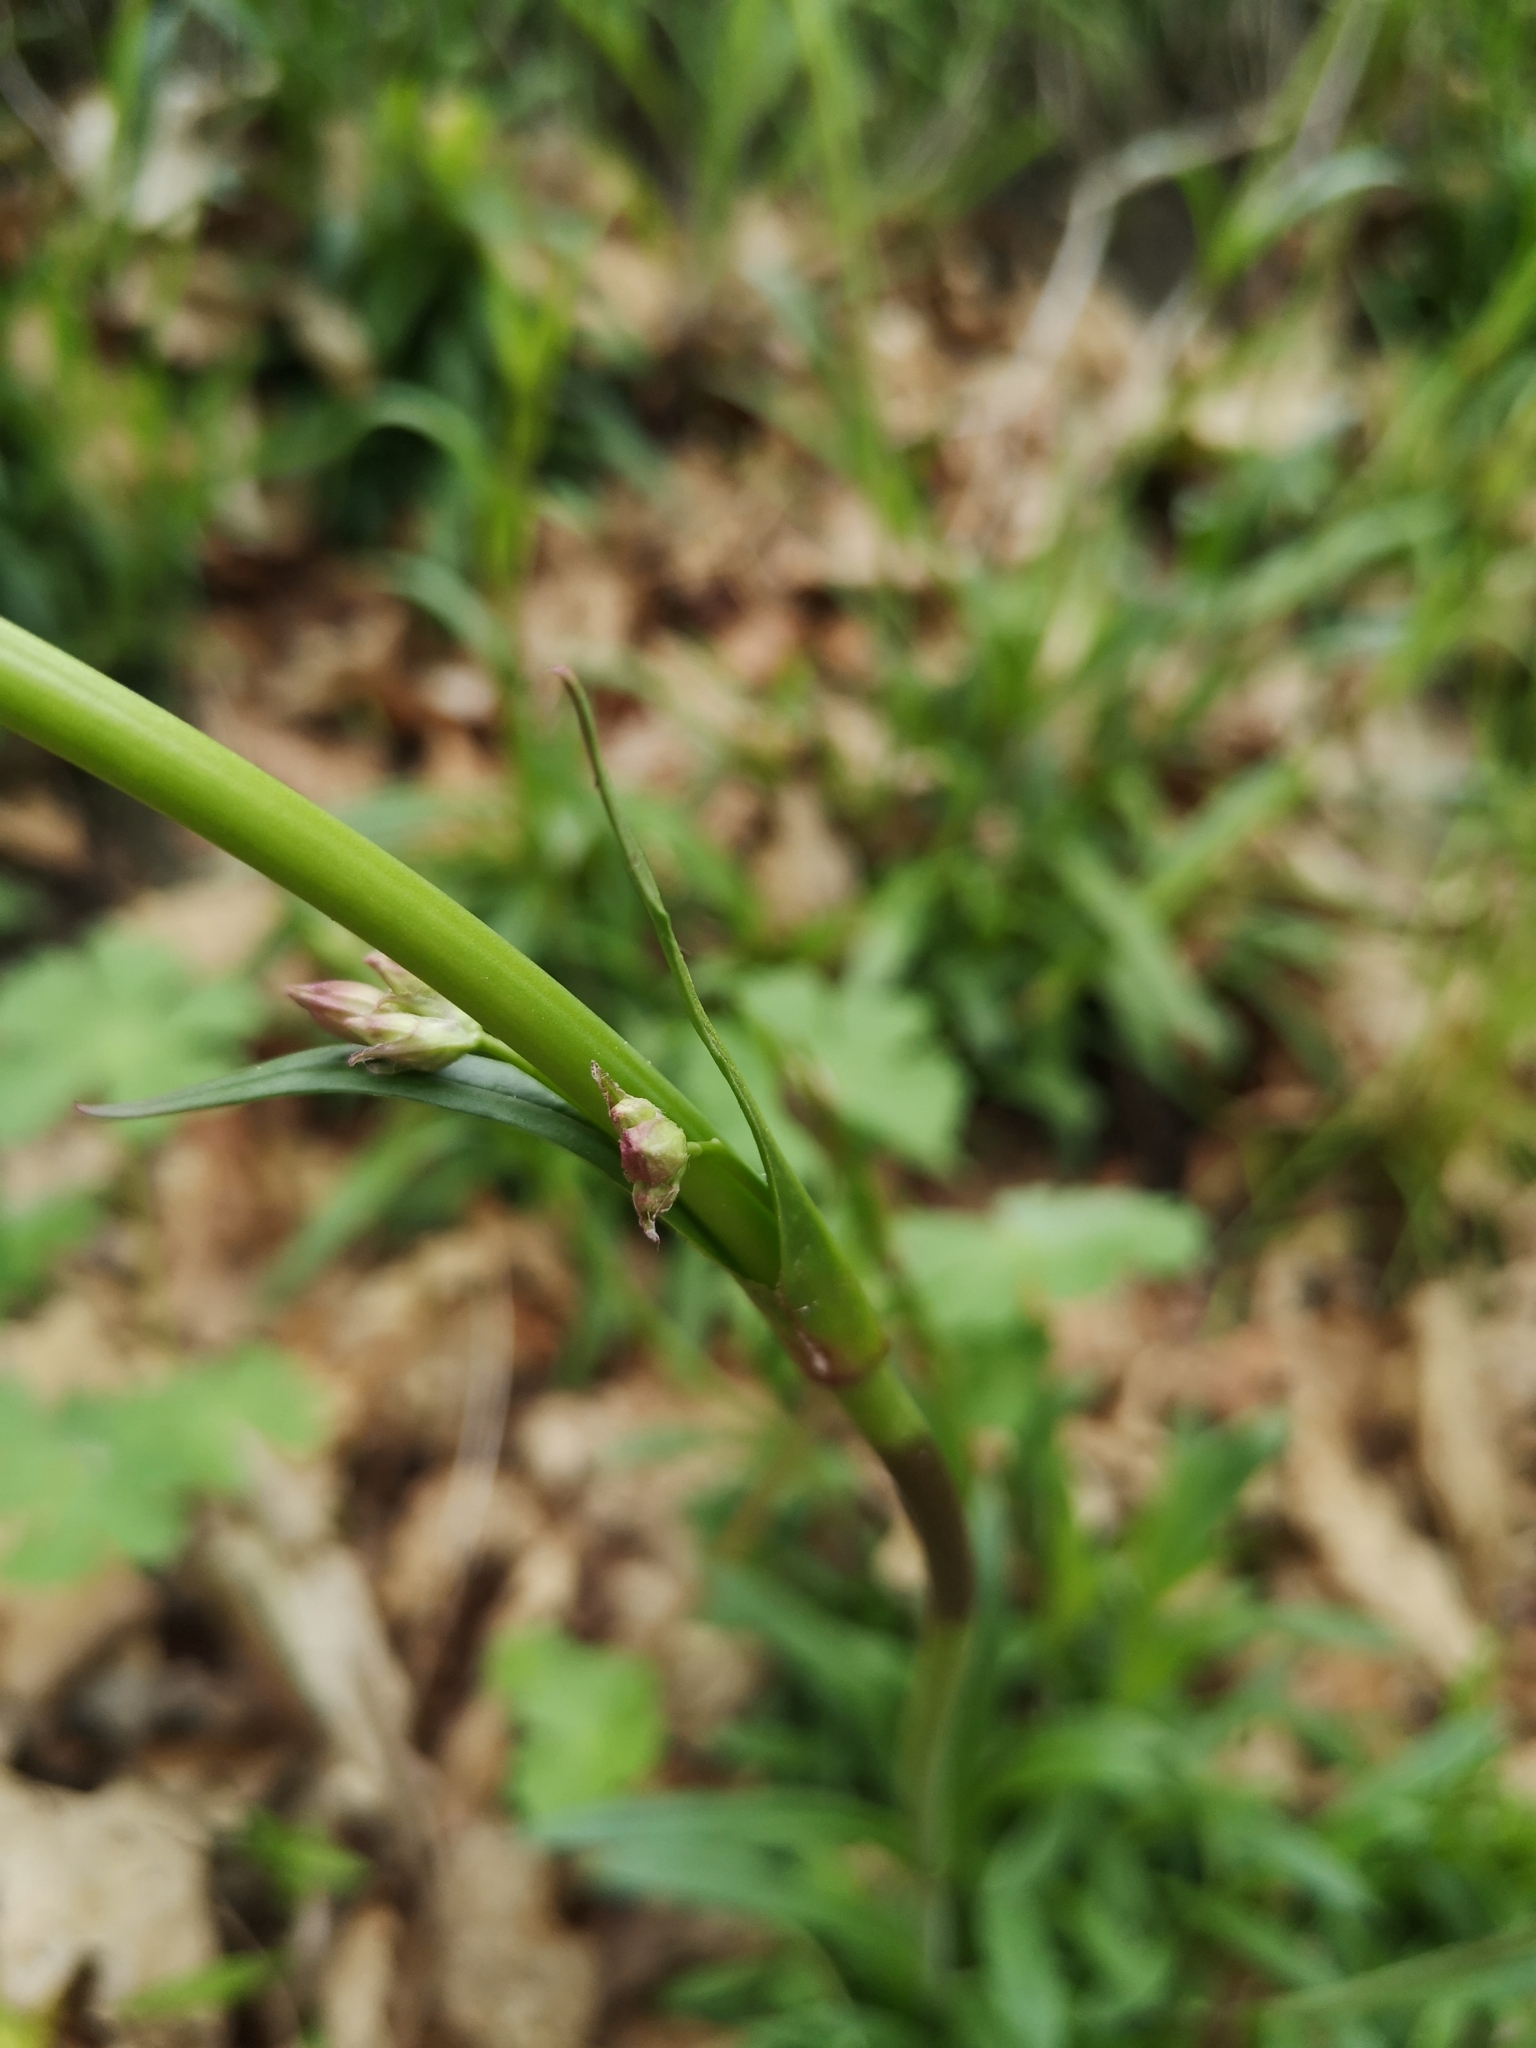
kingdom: Plantae
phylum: Tracheophyta
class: Magnoliopsida
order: Caryophyllales
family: Caryophyllaceae
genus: Viscaria
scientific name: Viscaria vulgaris
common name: Clammy campion
